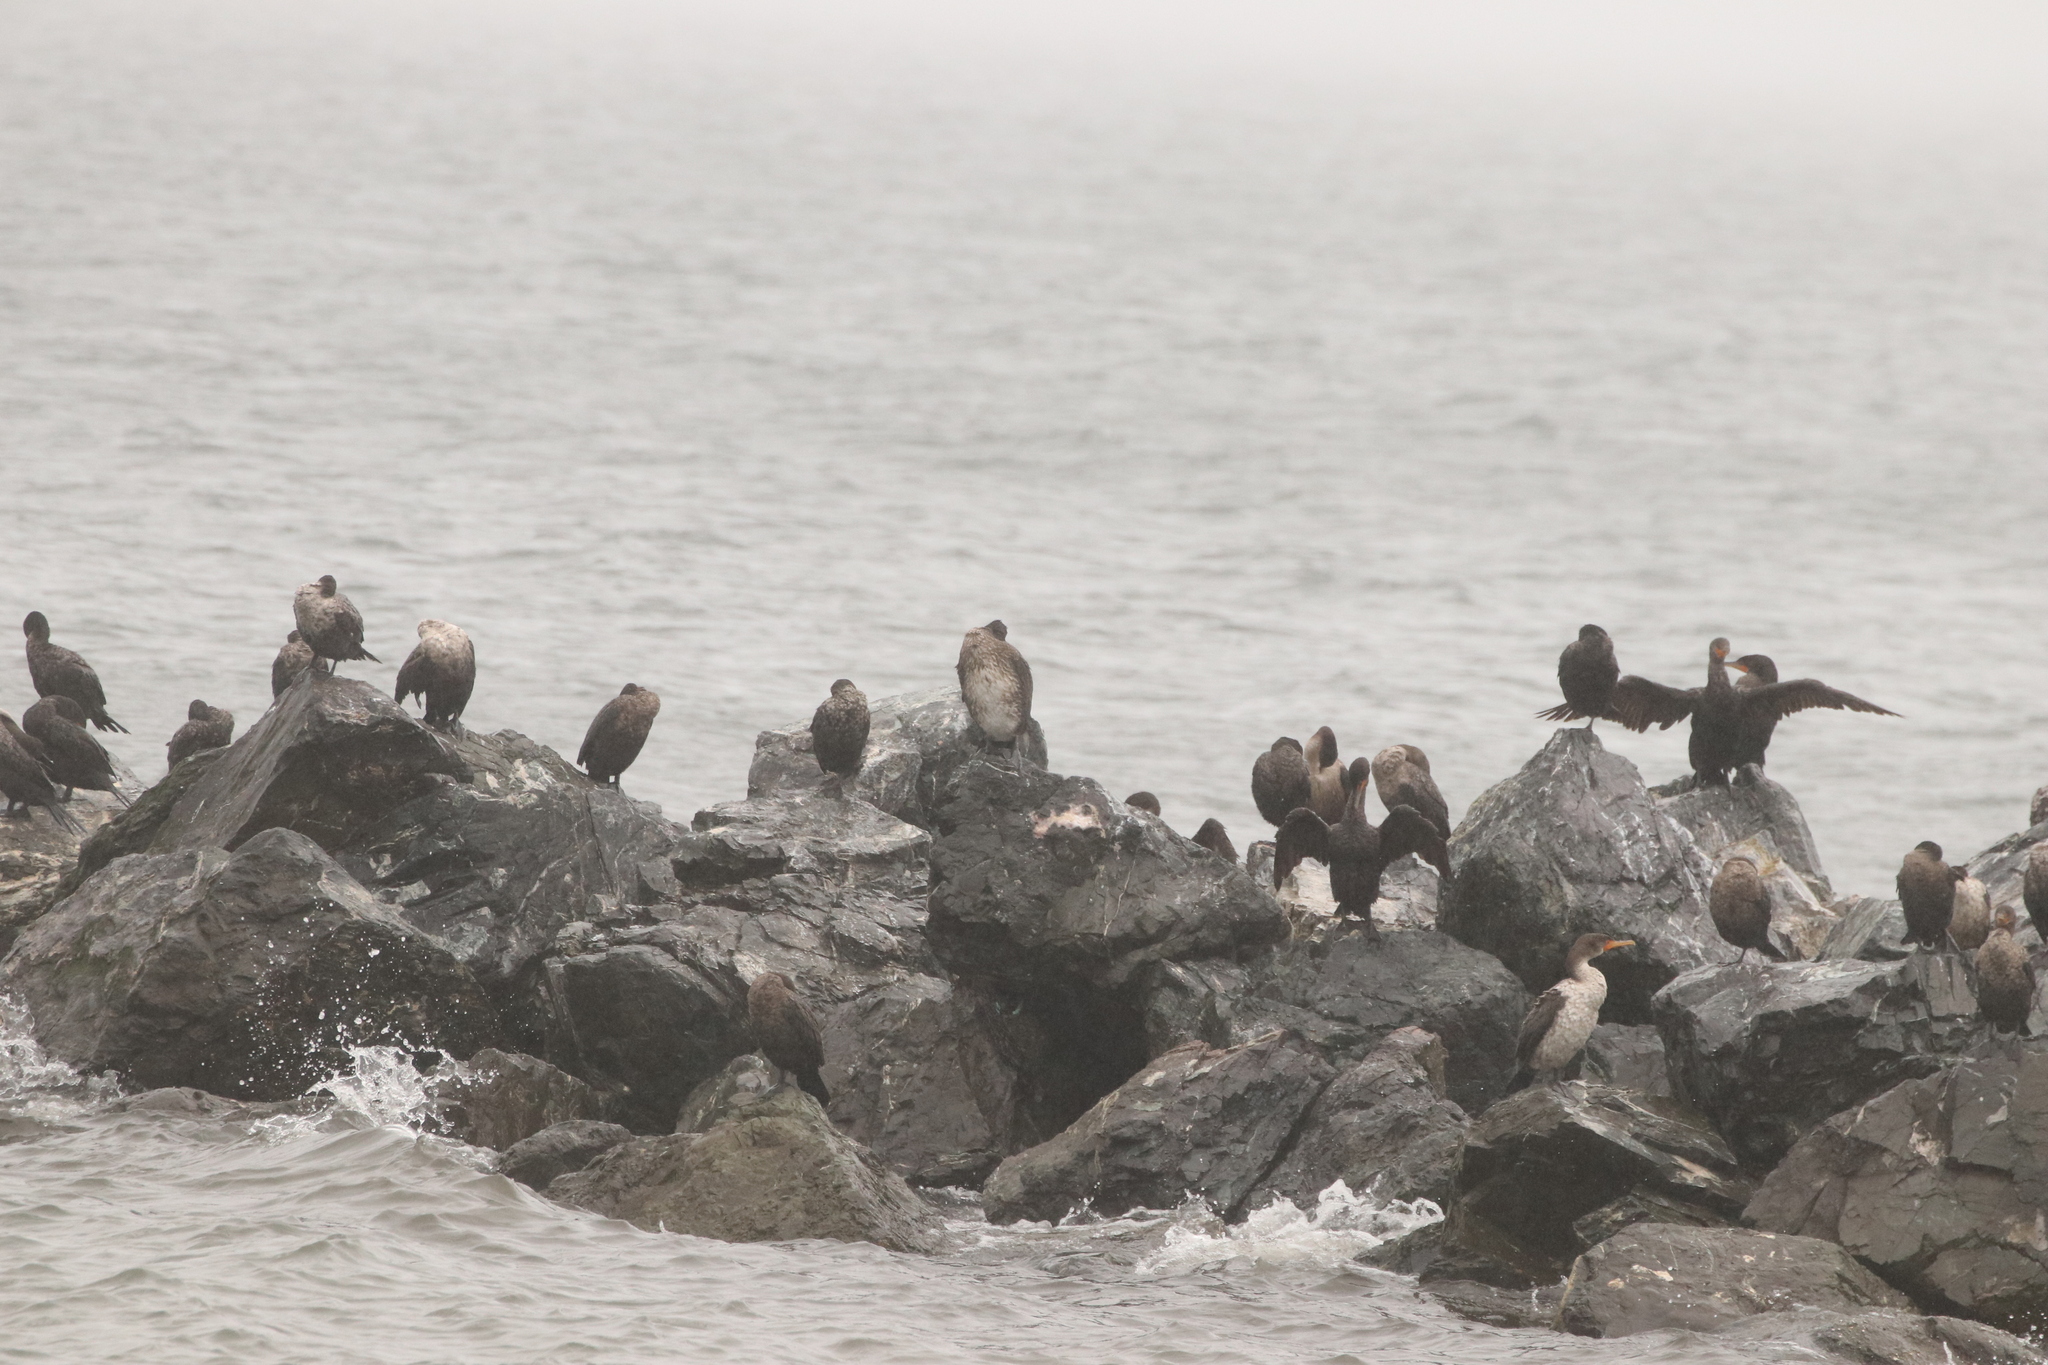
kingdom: Animalia
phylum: Chordata
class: Aves
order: Suliformes
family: Phalacrocoracidae
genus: Phalacrocorax
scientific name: Phalacrocorax carbo
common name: Great cormorant
